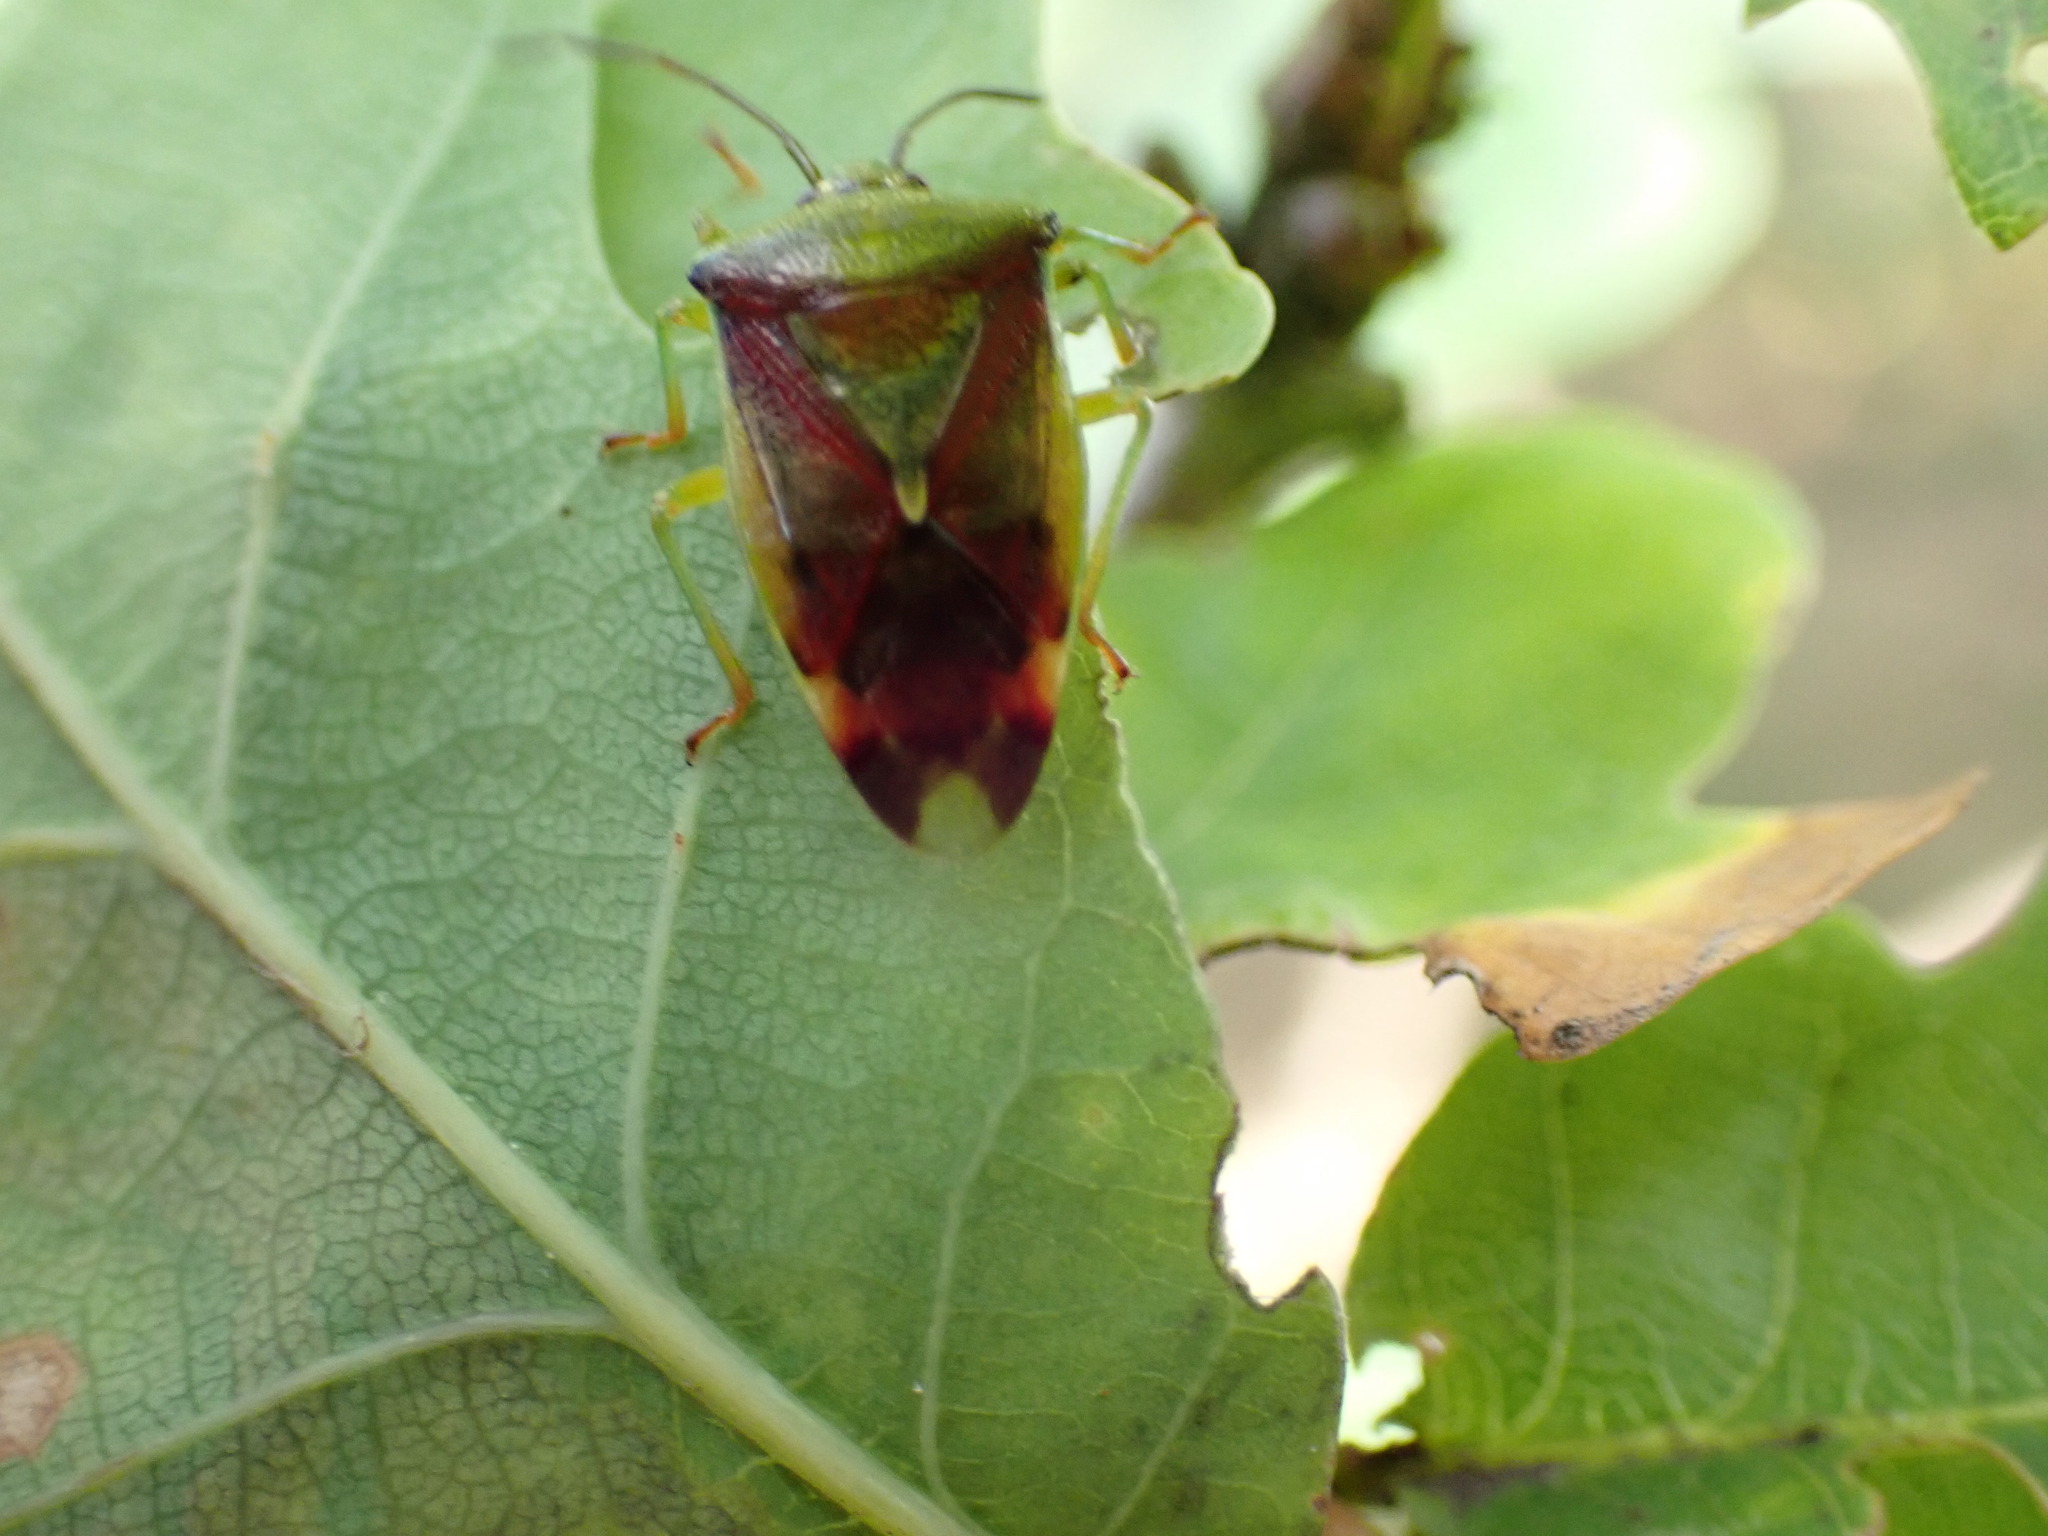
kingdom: Animalia
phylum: Arthropoda
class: Insecta
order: Hemiptera
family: Acanthosomatidae
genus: Elasmostethus
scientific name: Elasmostethus interstinctus
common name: Birch shieldbug
